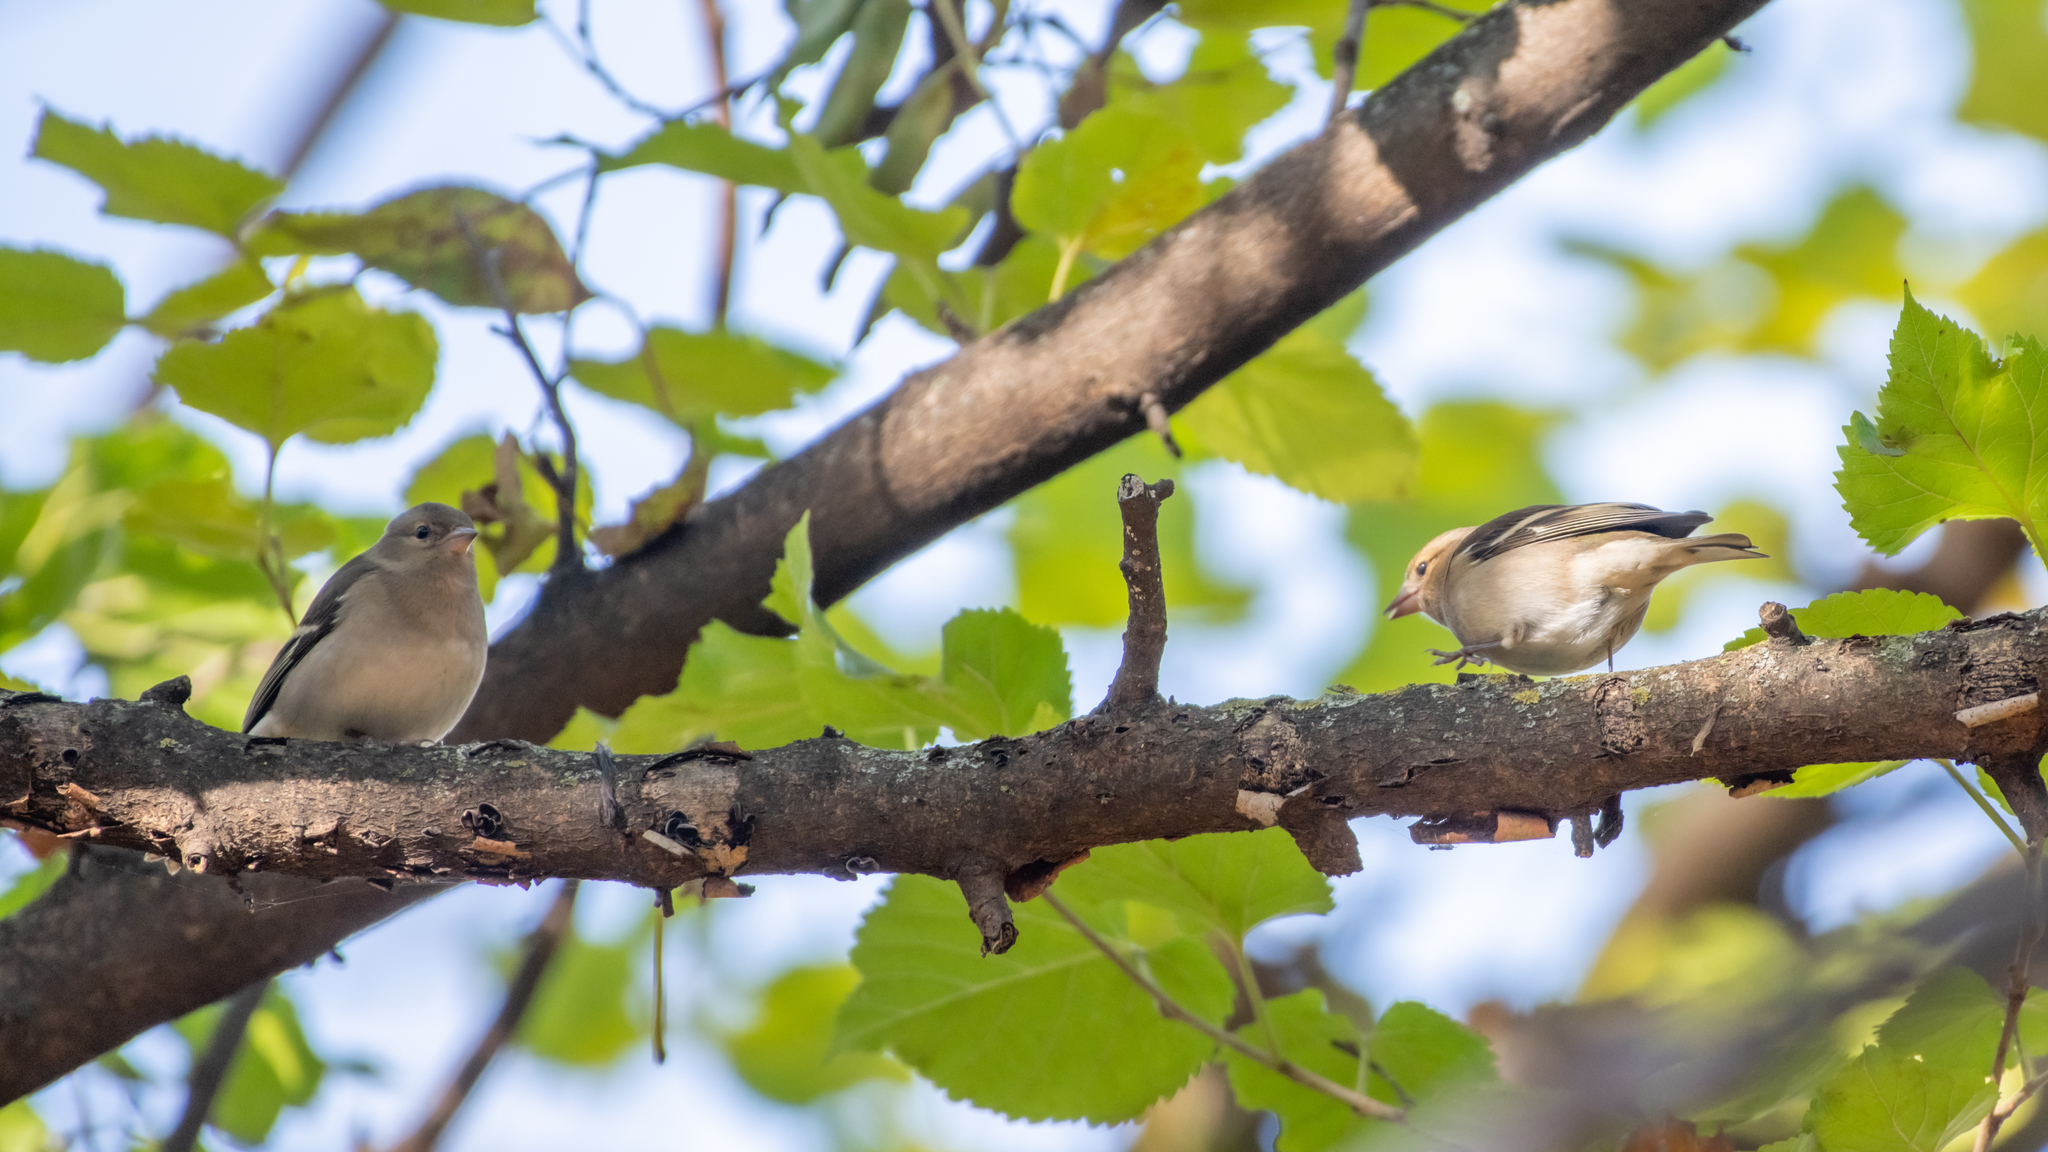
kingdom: Animalia
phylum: Chordata
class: Aves
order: Passeriformes
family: Fringillidae
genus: Fringilla
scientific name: Fringilla coelebs
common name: Common chaffinch
